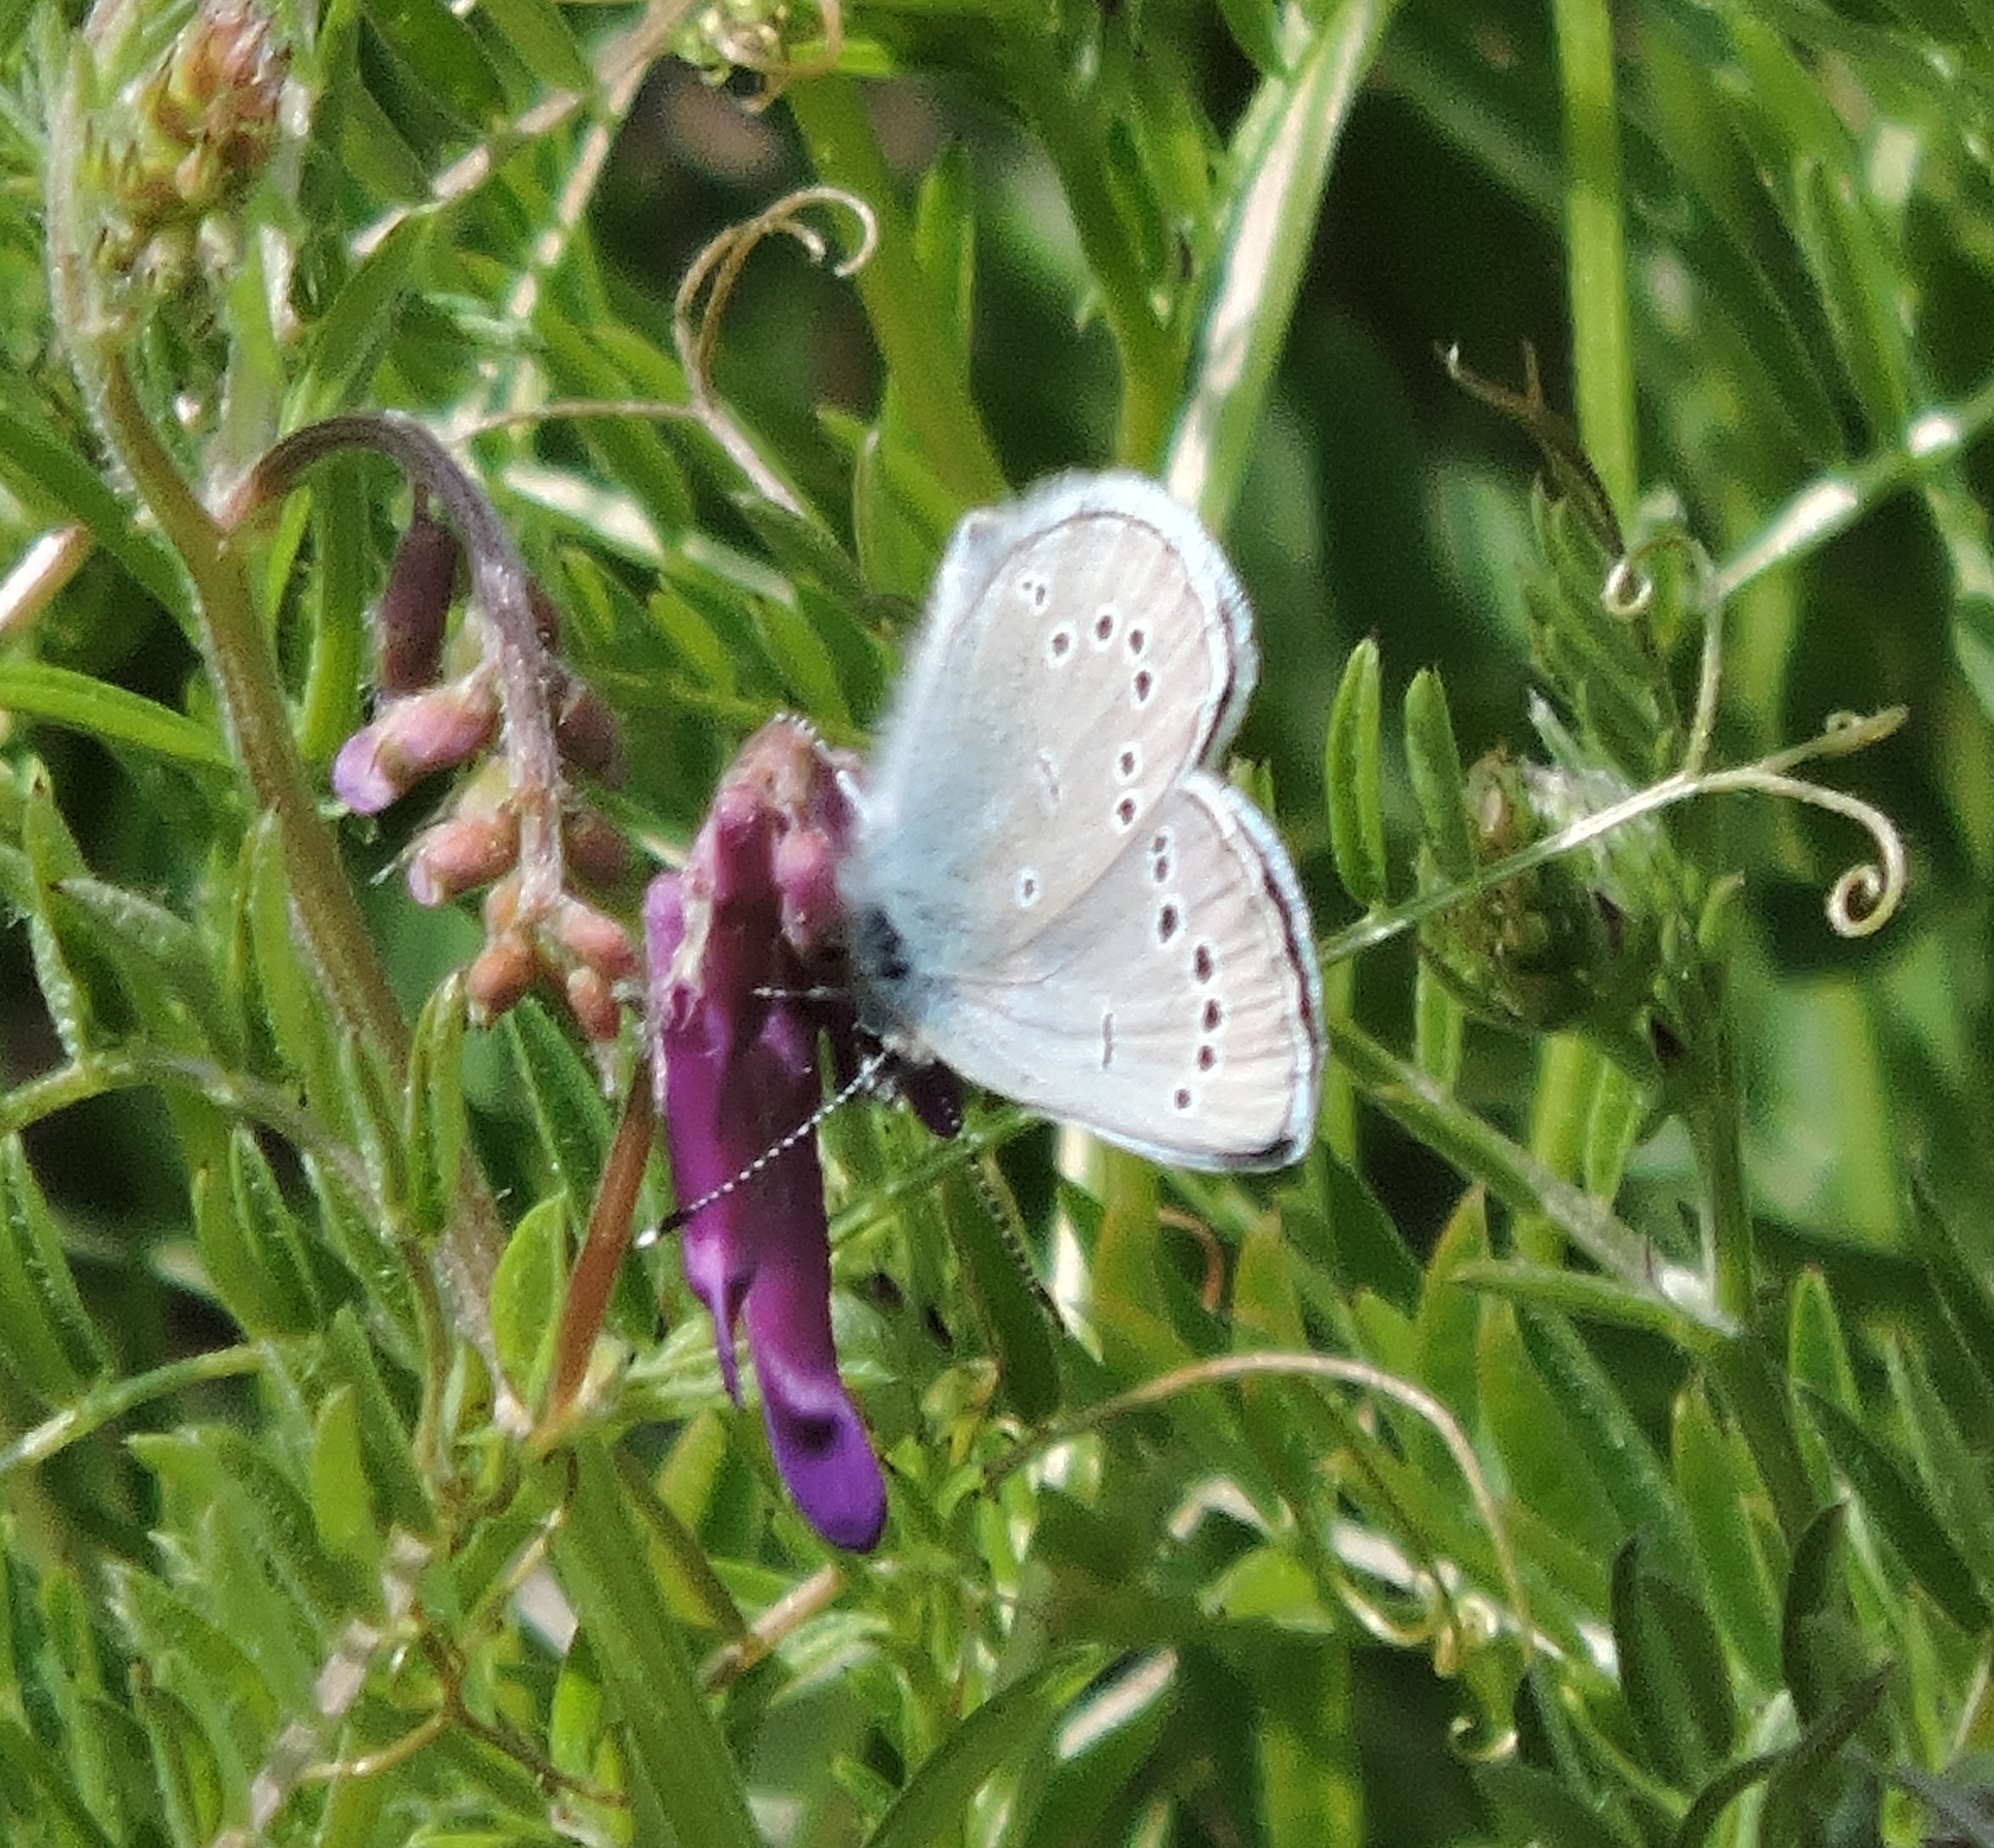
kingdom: Animalia
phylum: Arthropoda
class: Insecta
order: Lepidoptera
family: Lycaenidae
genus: Glaucopsyche
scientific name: Glaucopsyche lygdamus
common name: Silvery blue
